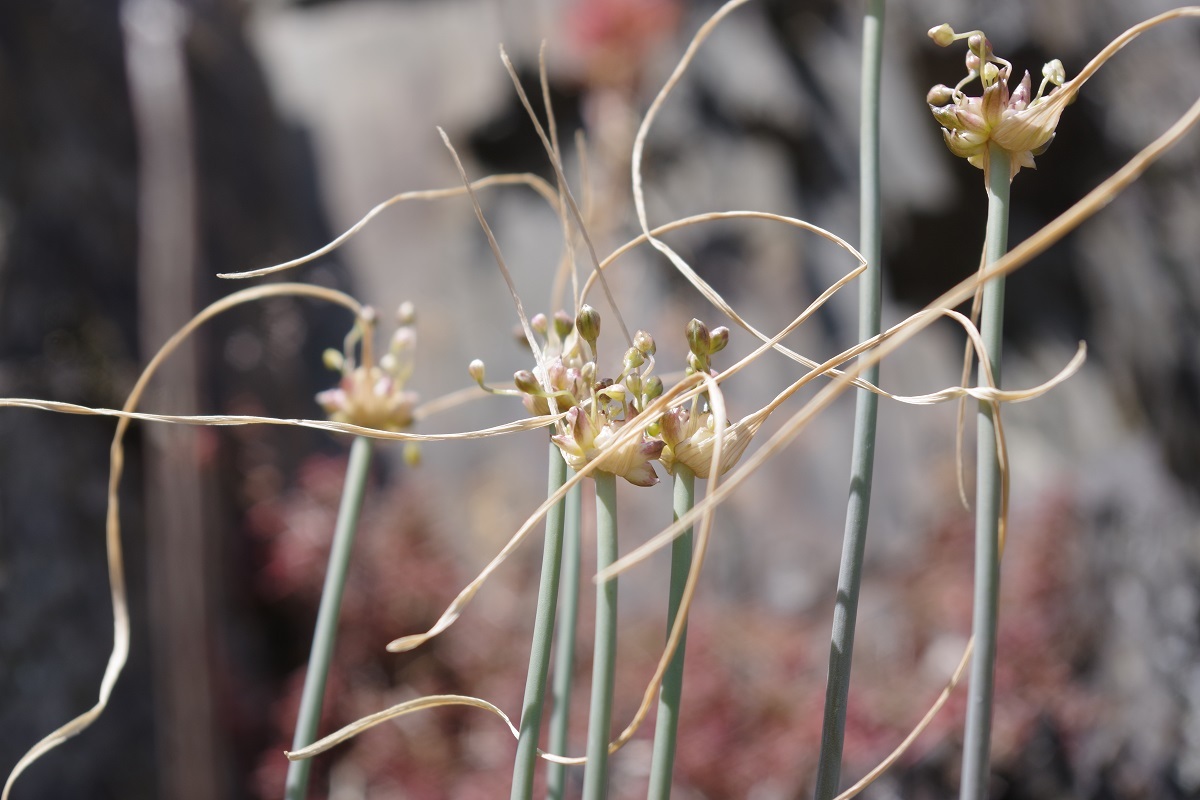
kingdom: Plantae
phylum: Tracheophyta
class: Liliopsida
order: Asparagales
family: Amaryllidaceae
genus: Allium
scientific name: Allium oleraceum
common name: Field garlic
